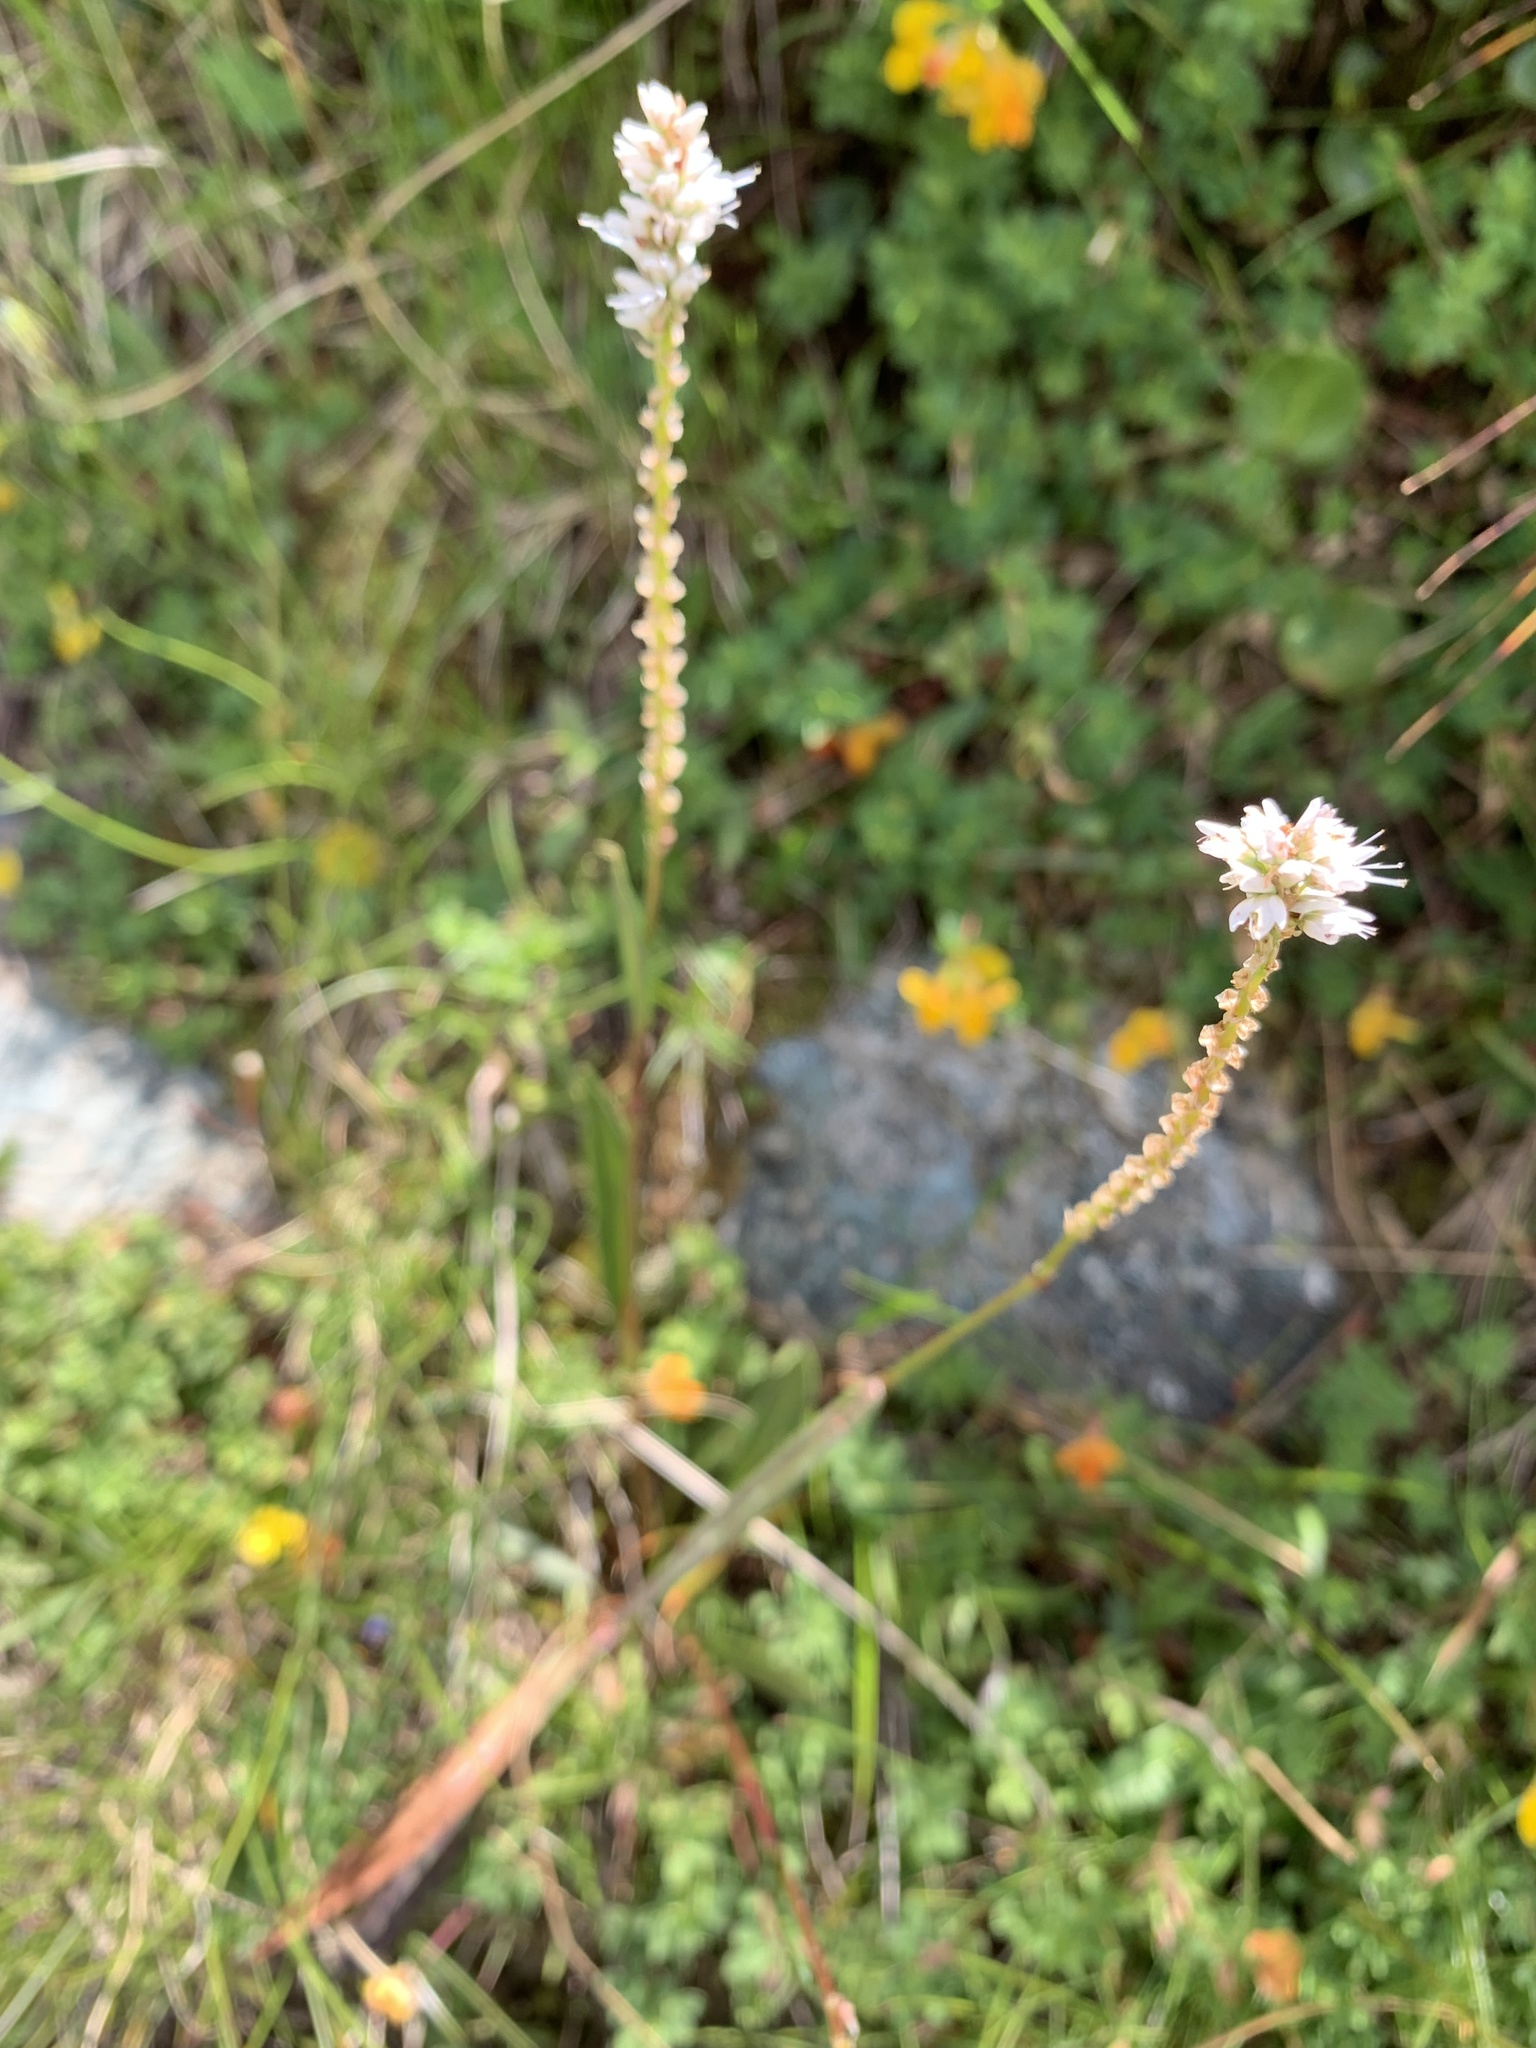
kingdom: Plantae
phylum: Tracheophyta
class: Magnoliopsida
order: Caryophyllales
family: Polygonaceae
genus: Bistorta
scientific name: Bistorta vivipara
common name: Alpine bistort
